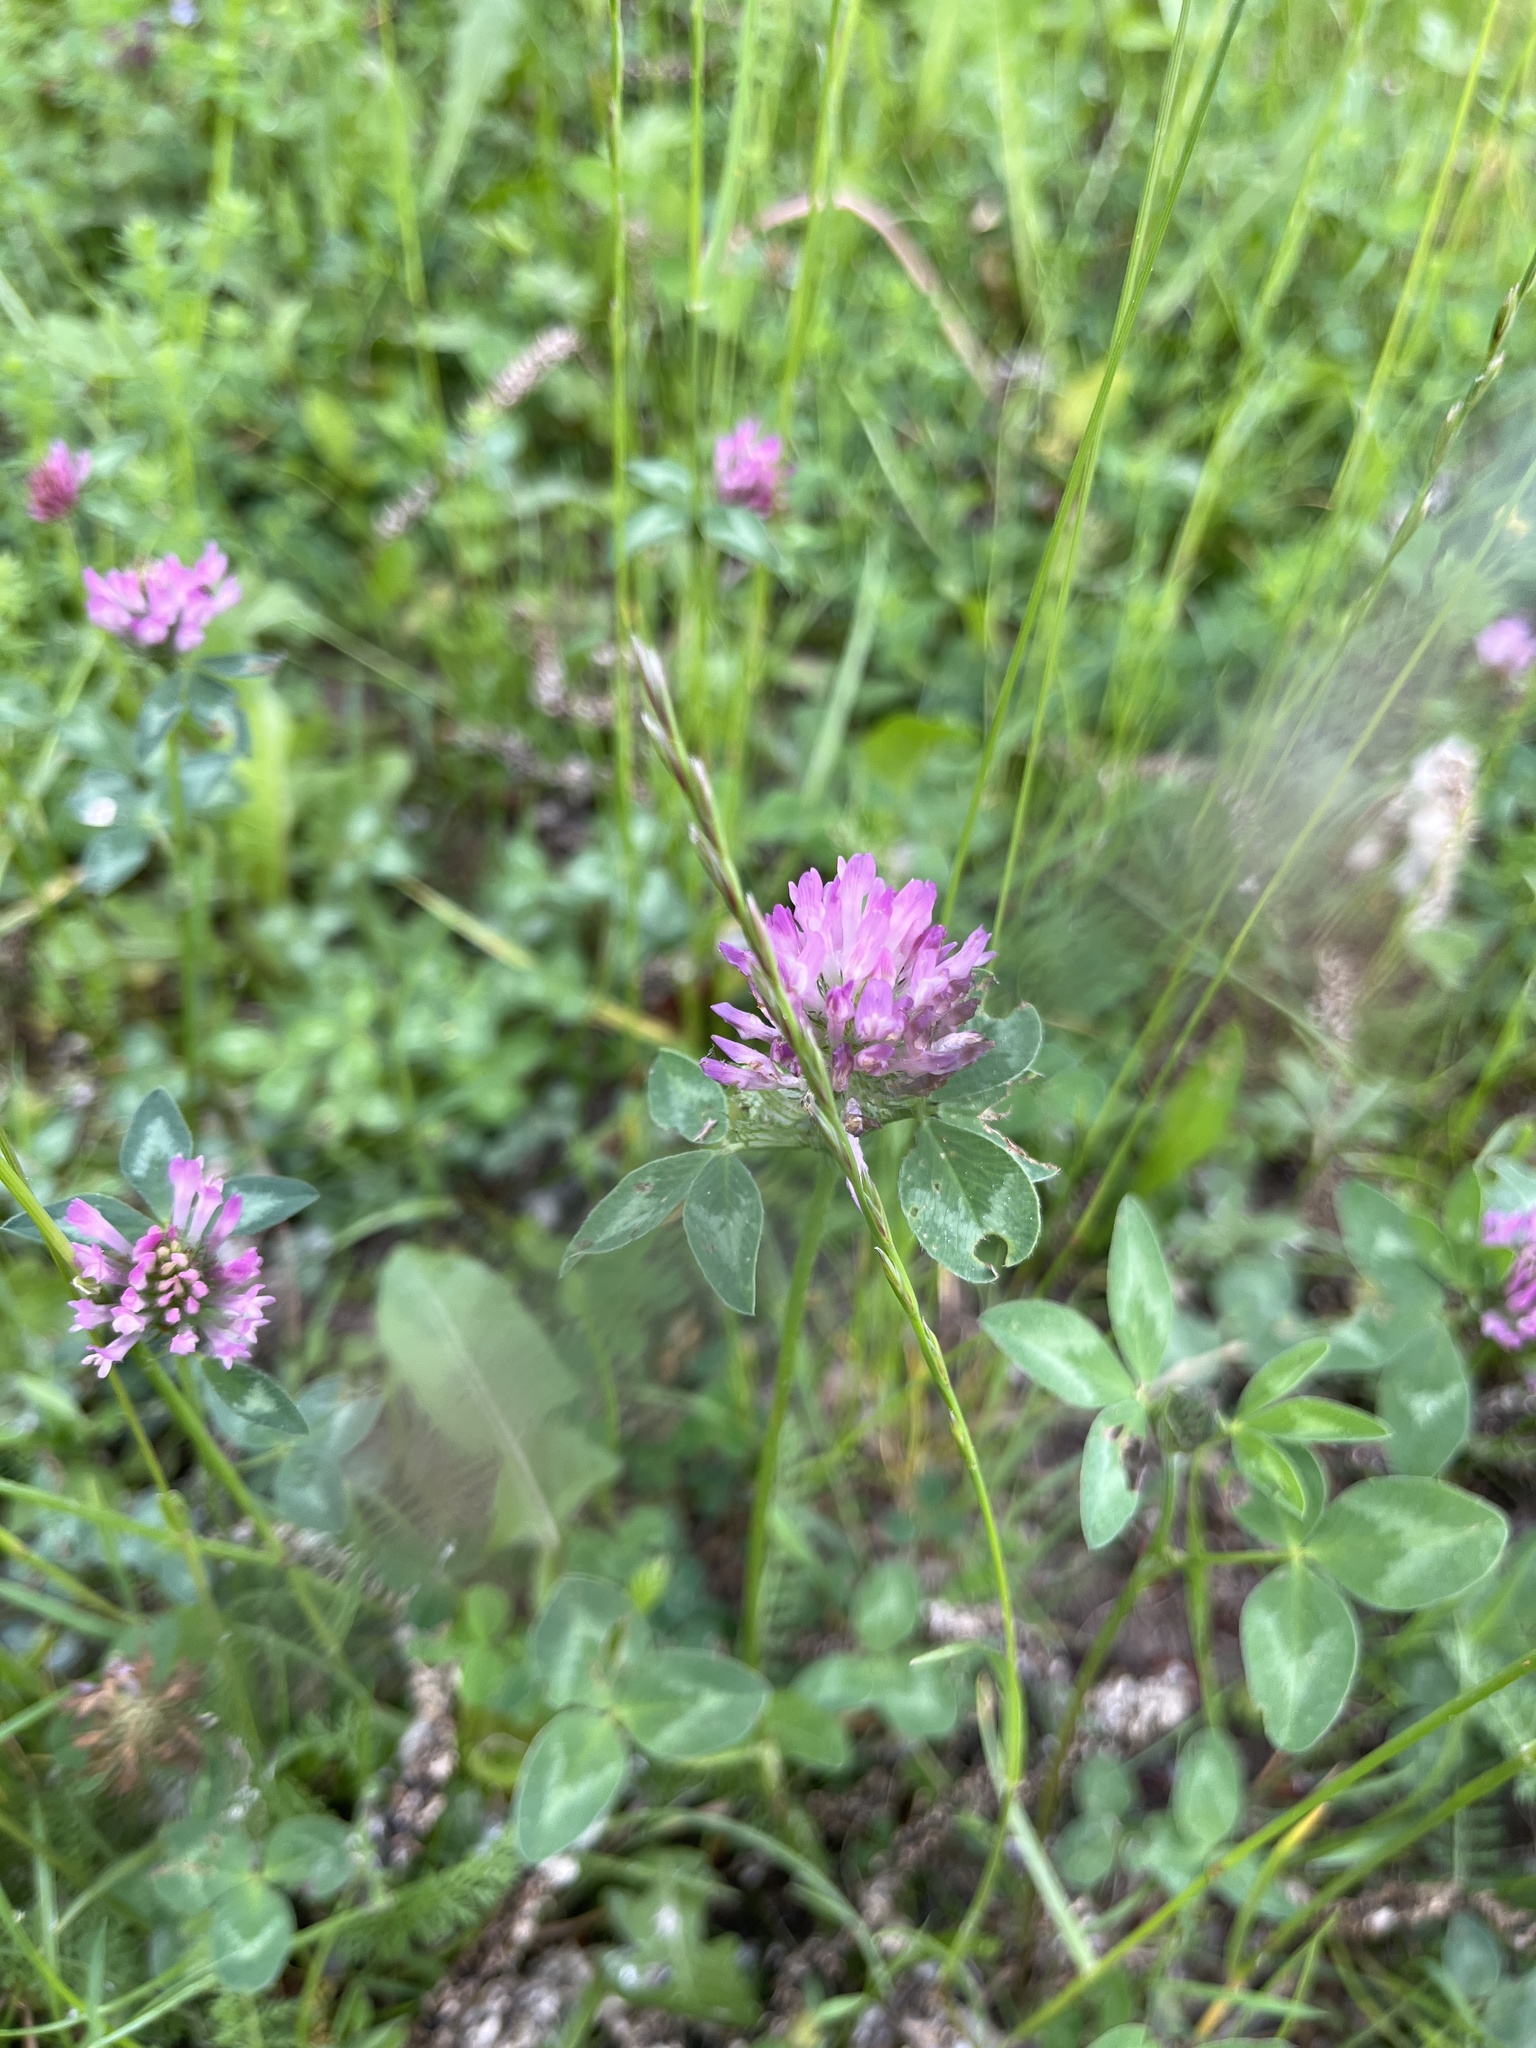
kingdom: Plantae
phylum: Tracheophyta
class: Magnoliopsida
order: Fabales
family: Fabaceae
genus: Trifolium
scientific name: Trifolium pratense
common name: Red clover
